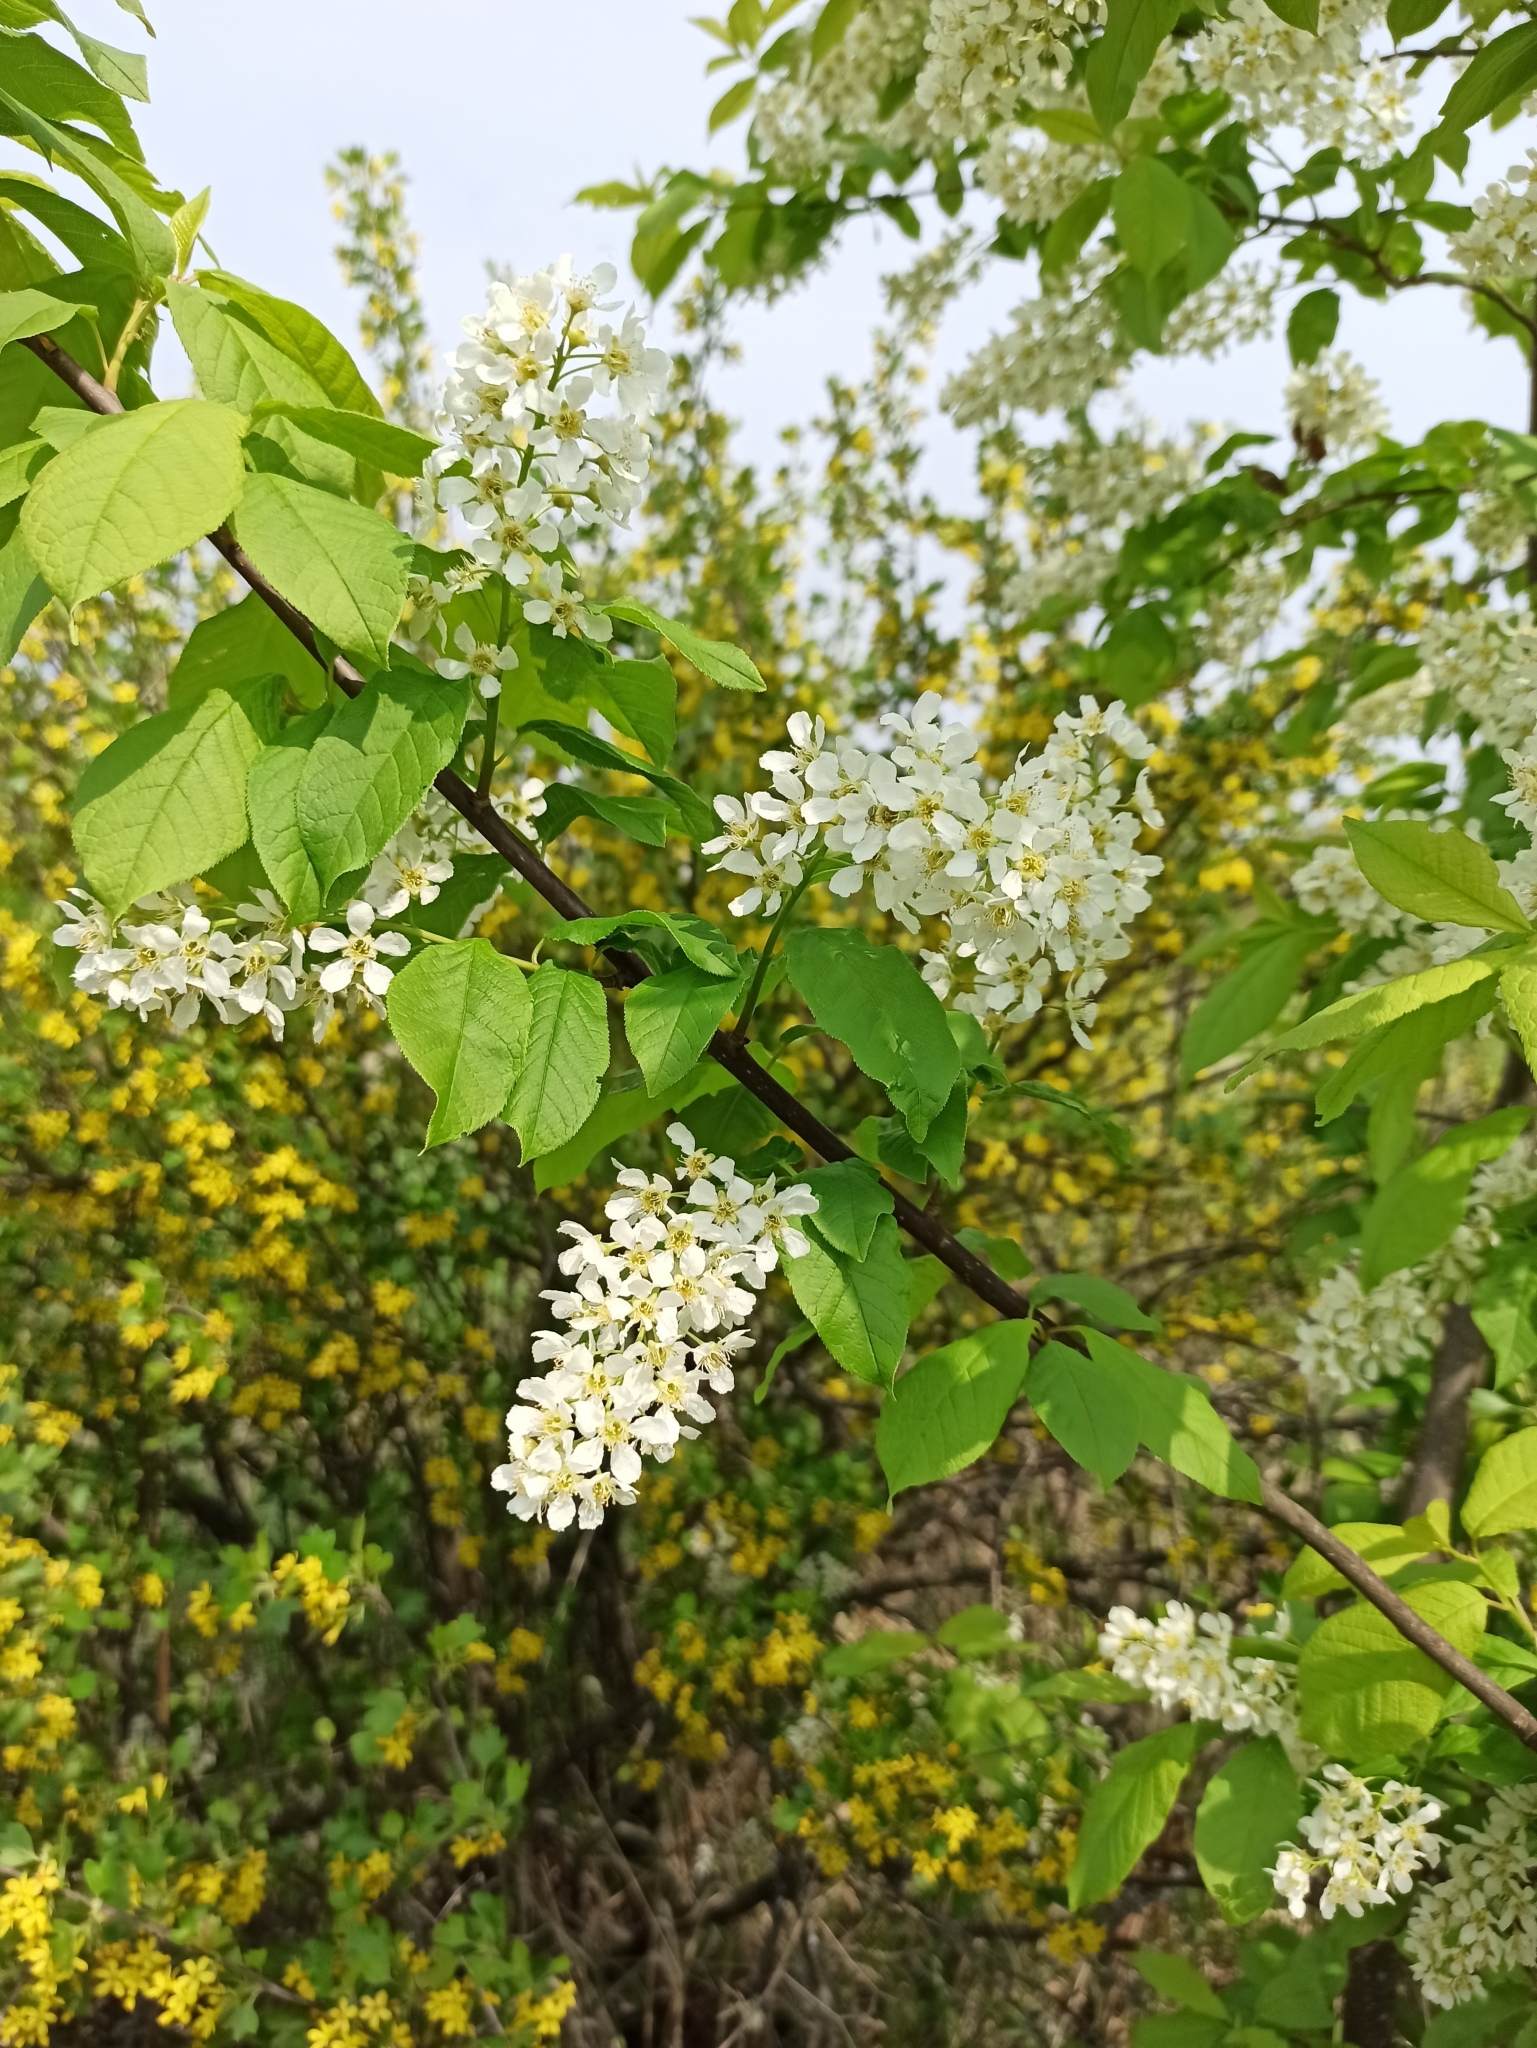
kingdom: Plantae
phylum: Tracheophyta
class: Magnoliopsida
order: Rosales
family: Rosaceae
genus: Prunus
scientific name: Prunus padus
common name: Bird cherry
